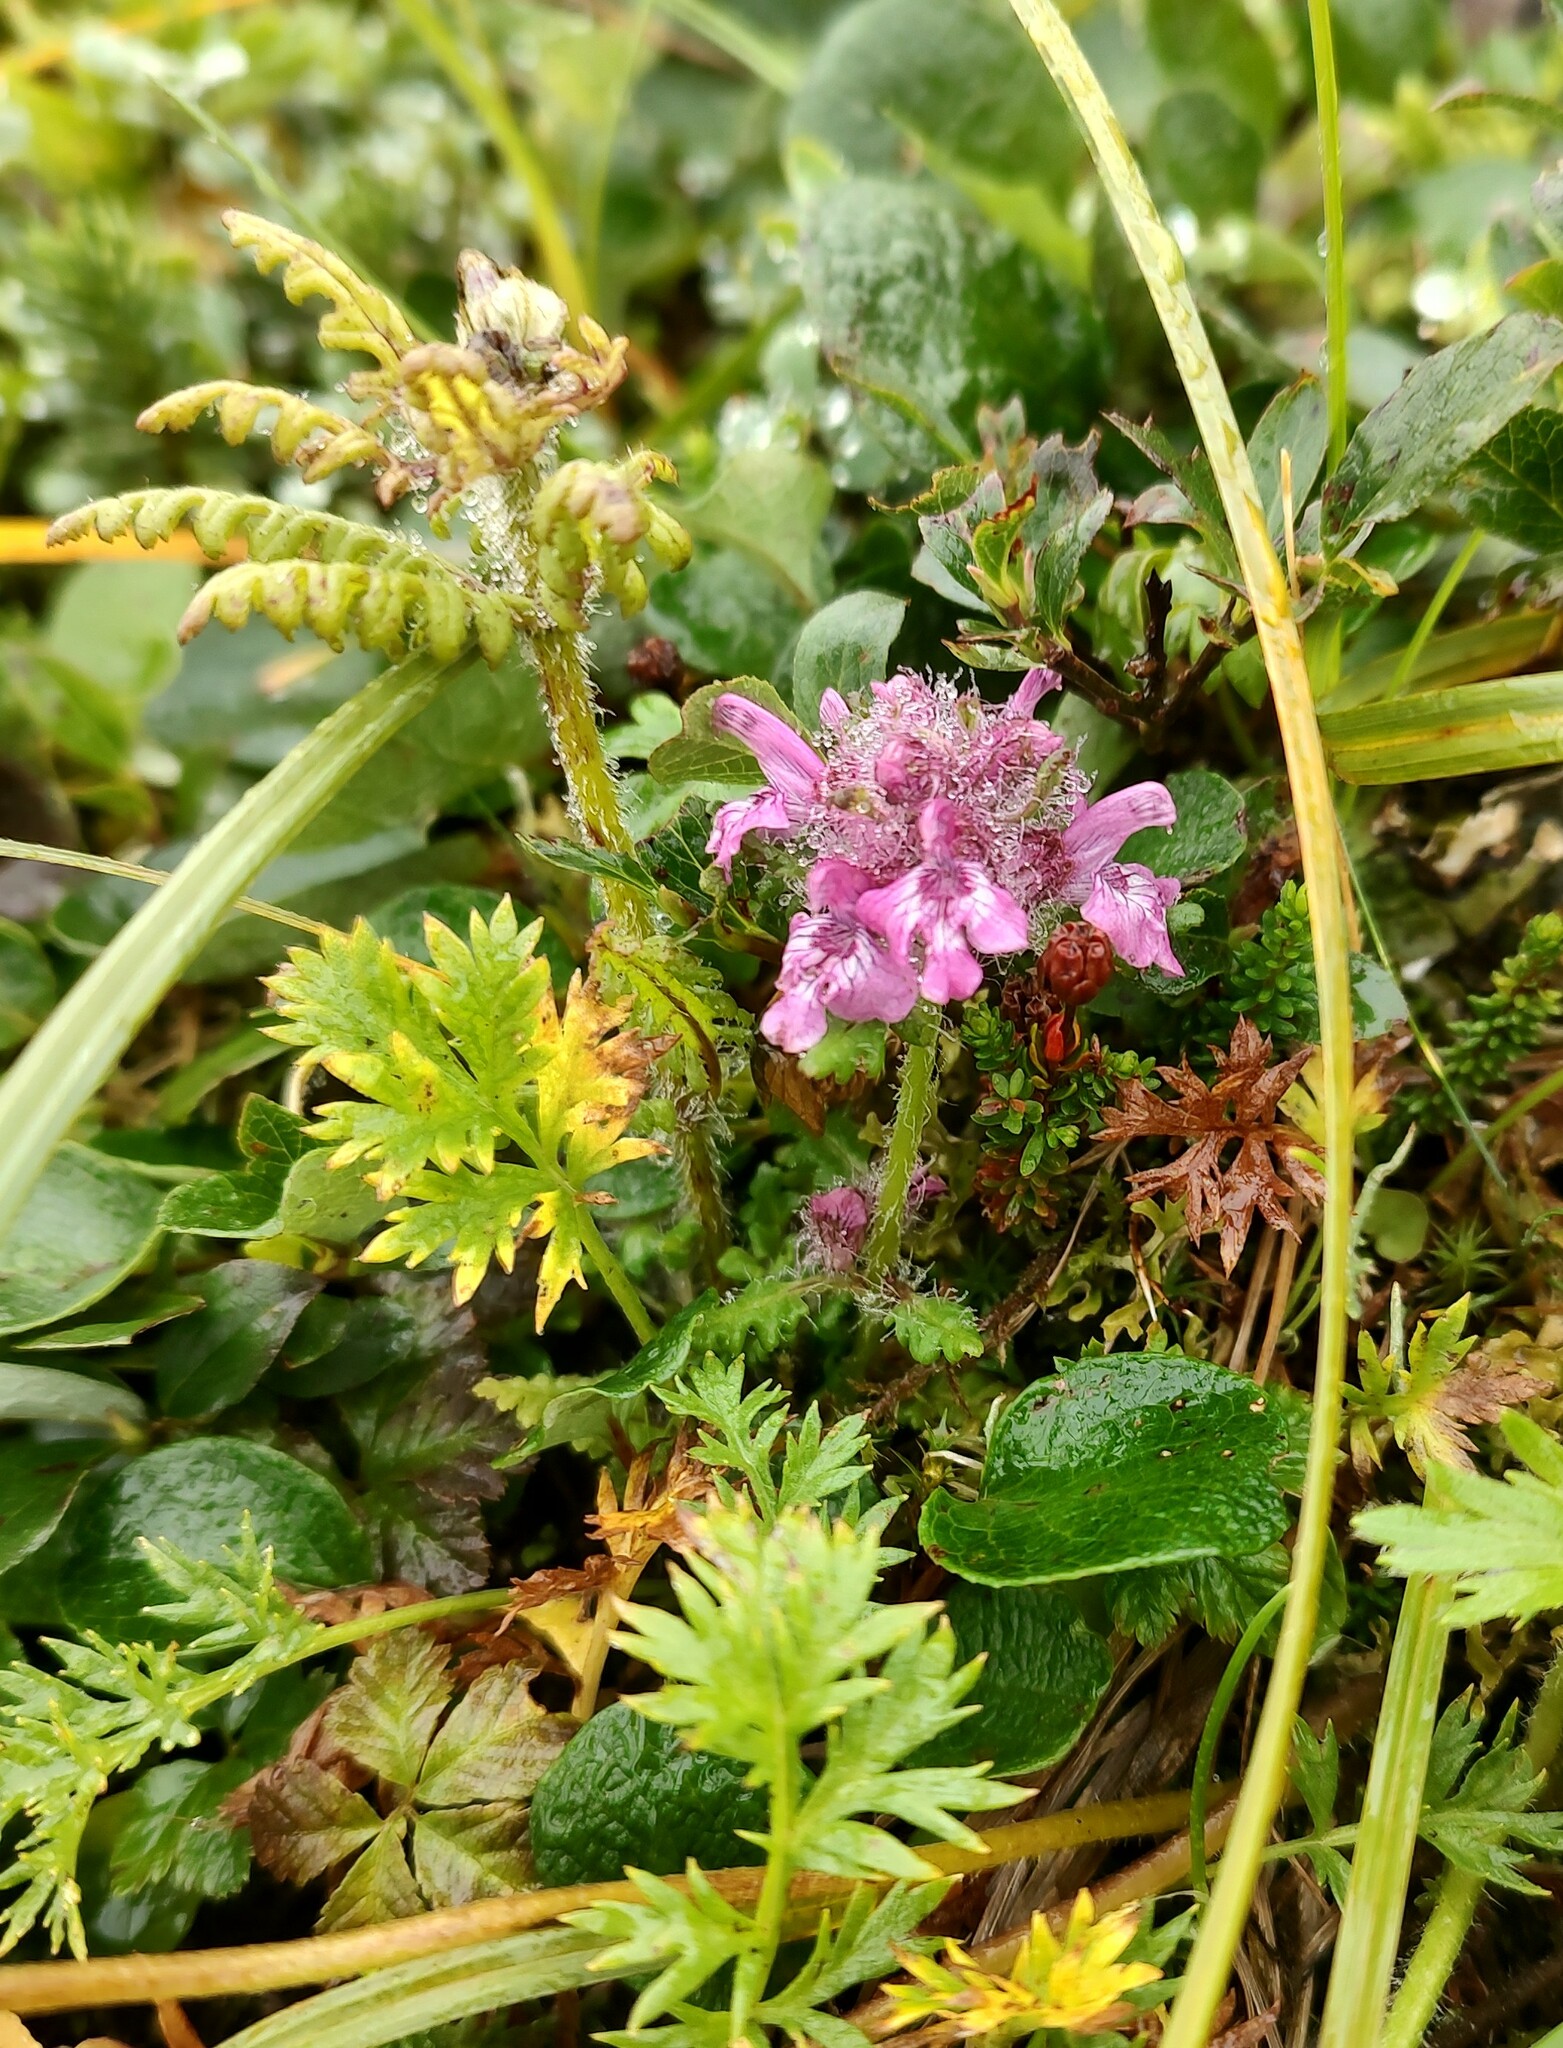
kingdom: Plantae
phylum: Tracheophyta
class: Magnoliopsida
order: Lamiales
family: Orobanchaceae
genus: Pedicularis
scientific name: Pedicularis verticillata
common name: Whorled lousewort
